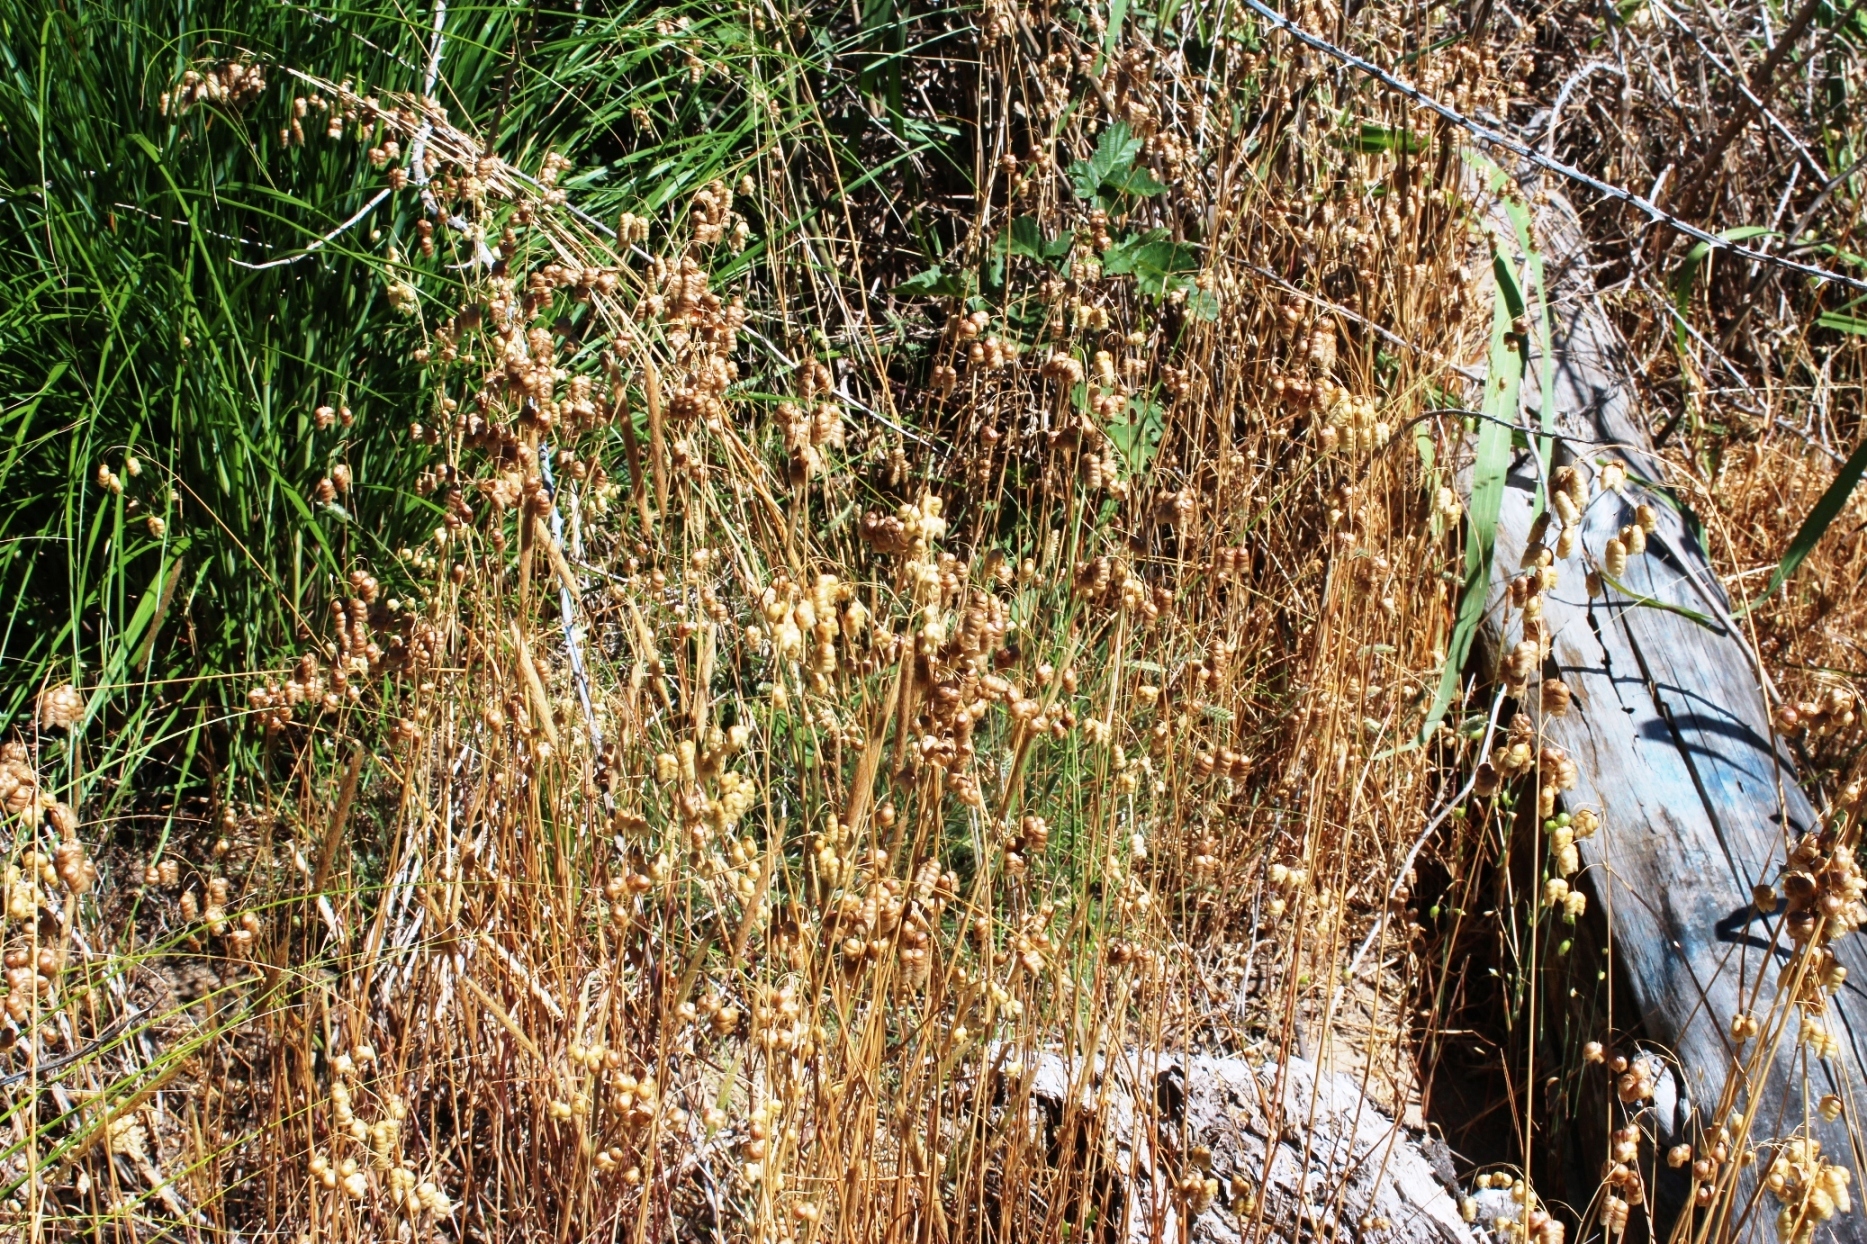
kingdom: Plantae
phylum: Tracheophyta
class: Liliopsida
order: Poales
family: Poaceae
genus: Briza
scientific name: Briza maxima
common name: Big quakinggrass
